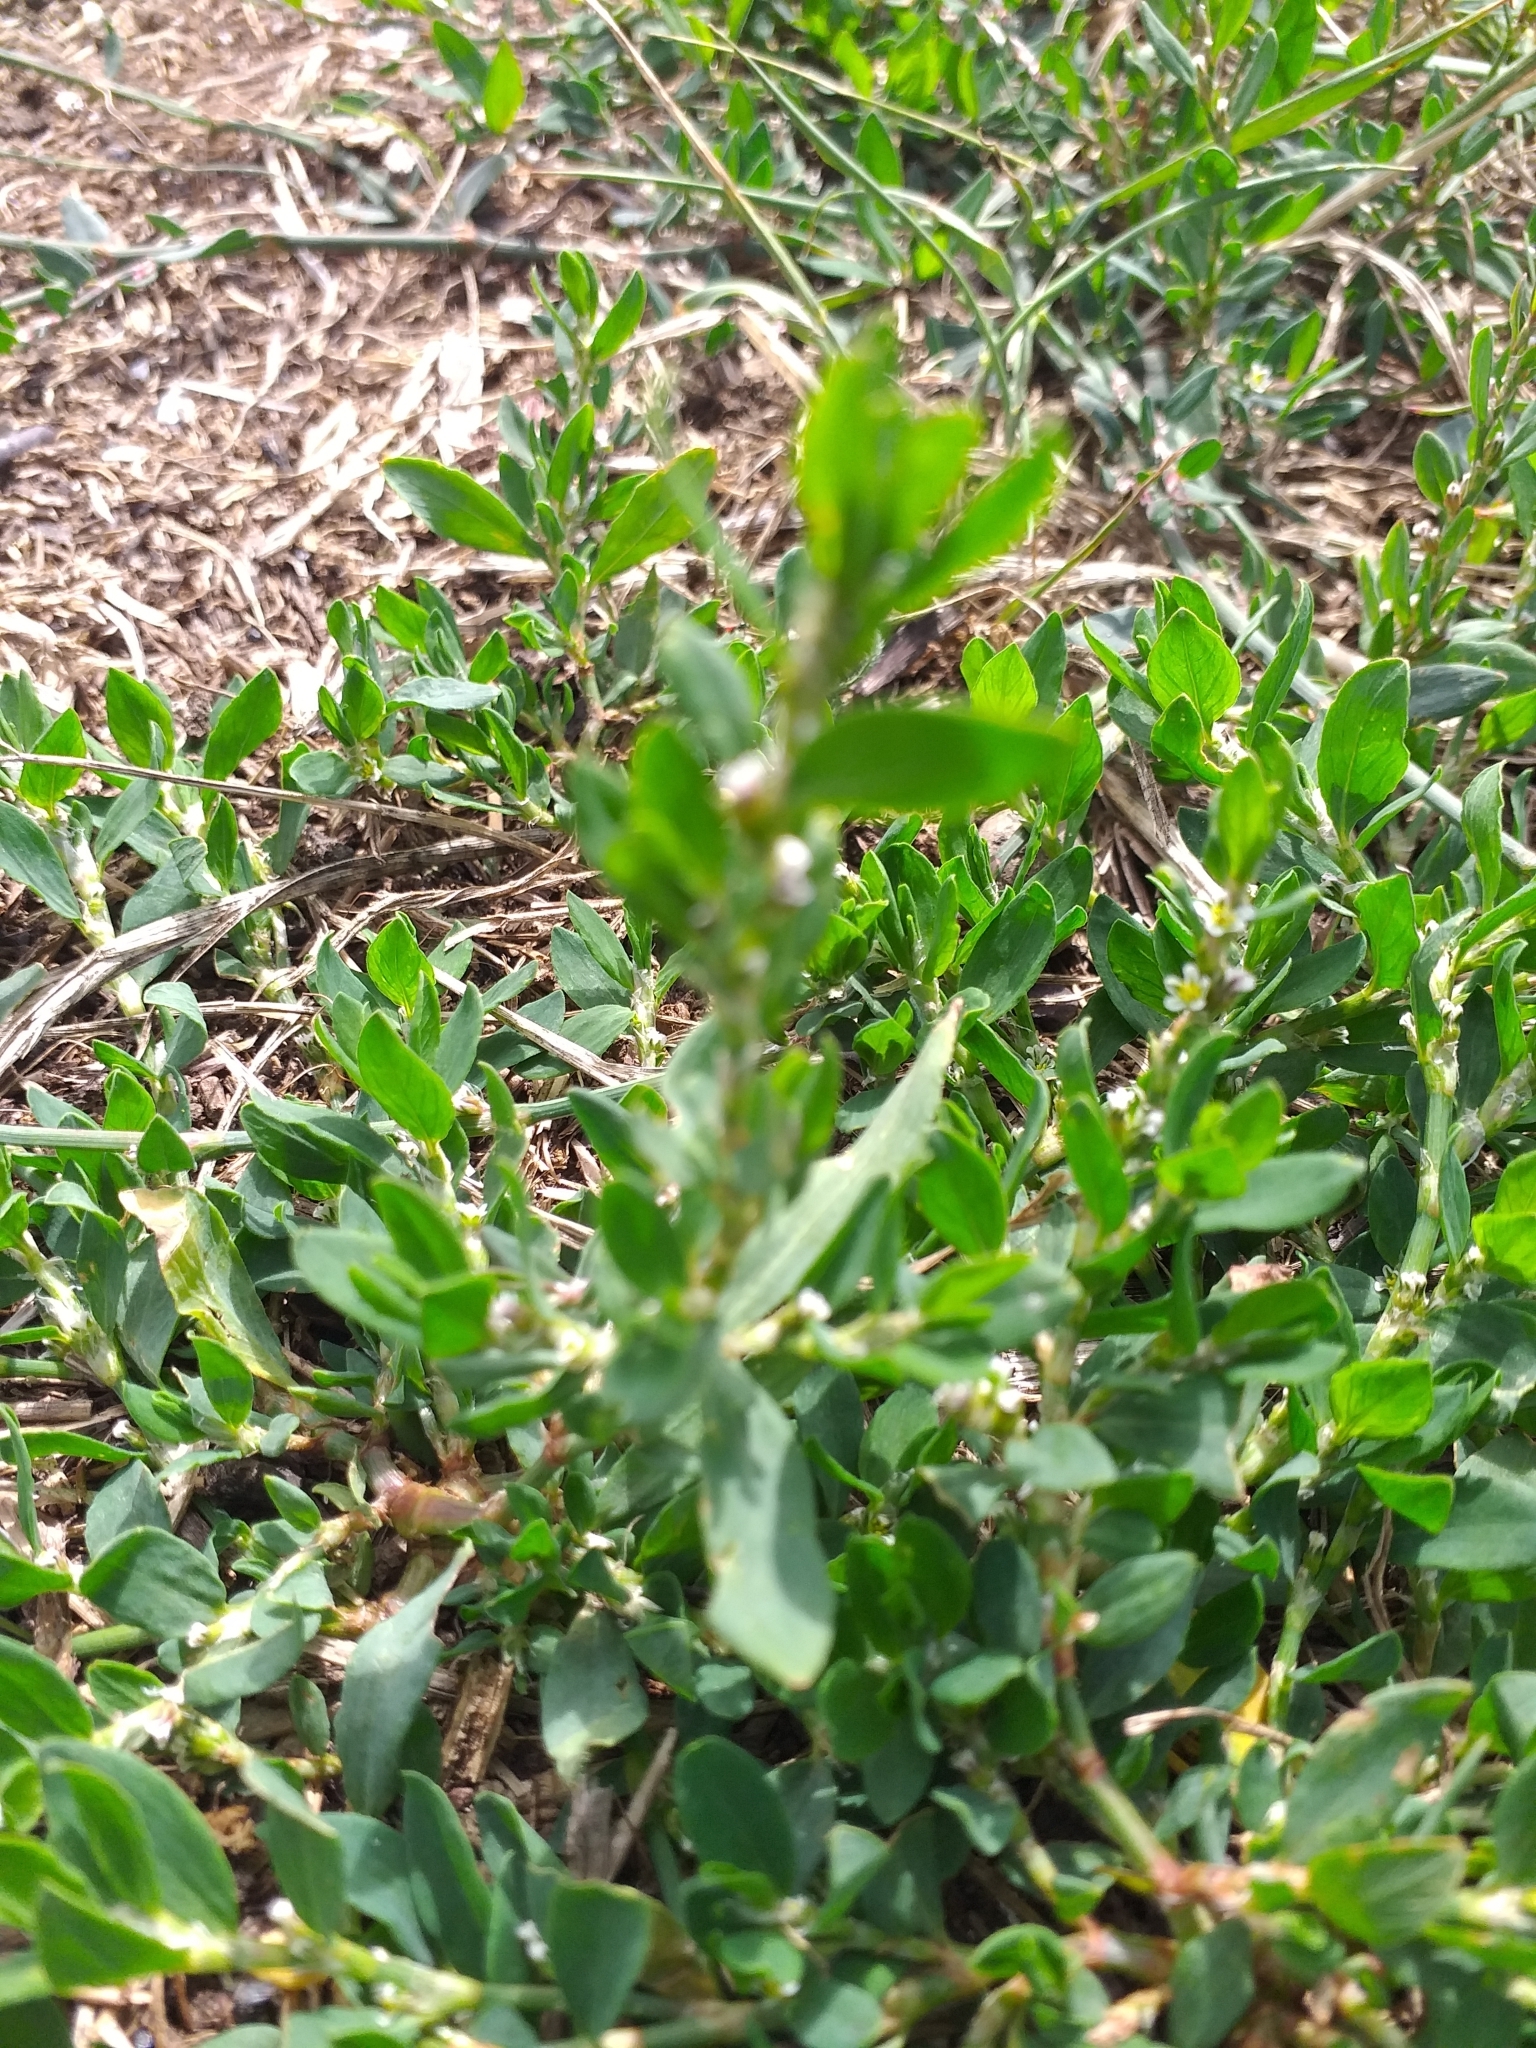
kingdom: Plantae
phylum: Tracheophyta
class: Magnoliopsida
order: Caryophyllales
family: Polygonaceae
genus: Polygonum
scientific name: Polygonum aviculare
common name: Prostrate knotweed
